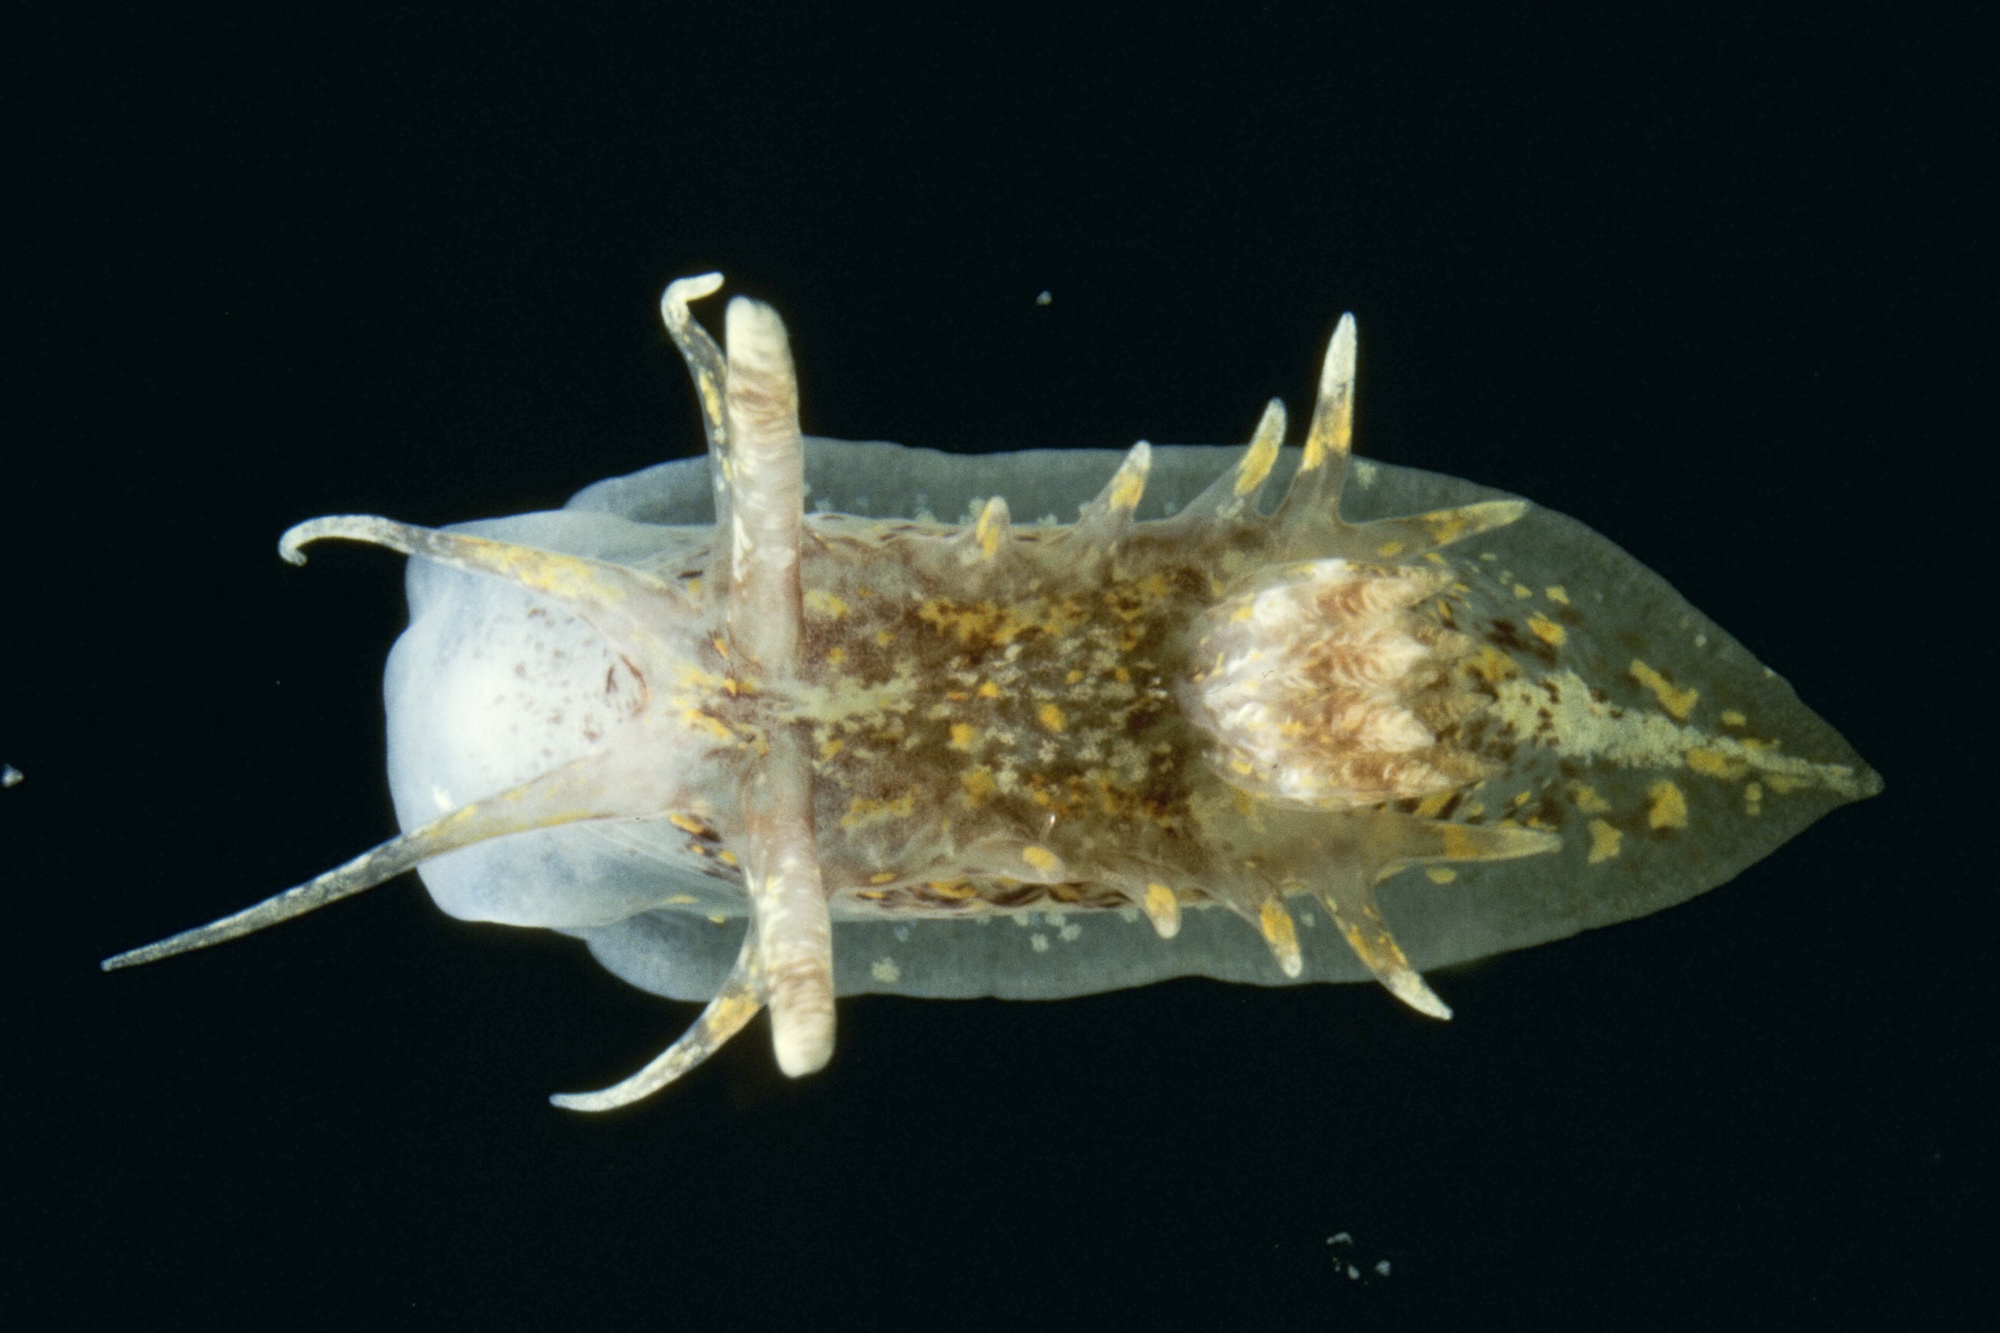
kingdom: Animalia
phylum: Mollusca
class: Gastropoda
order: Nudibranchia
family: Goniodorididae
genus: Okenia
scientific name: Okenia aspersa
